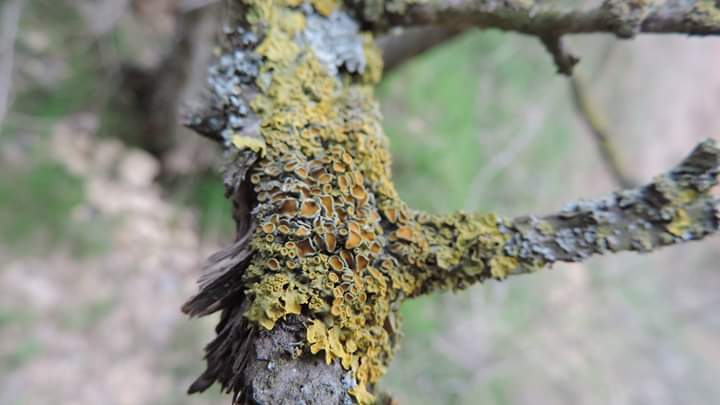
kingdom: Fungi
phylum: Ascomycota
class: Lecanoromycetes
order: Teloschistales
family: Teloschistaceae
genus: Xanthoria
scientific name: Xanthoria parietina
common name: Common orange lichen
